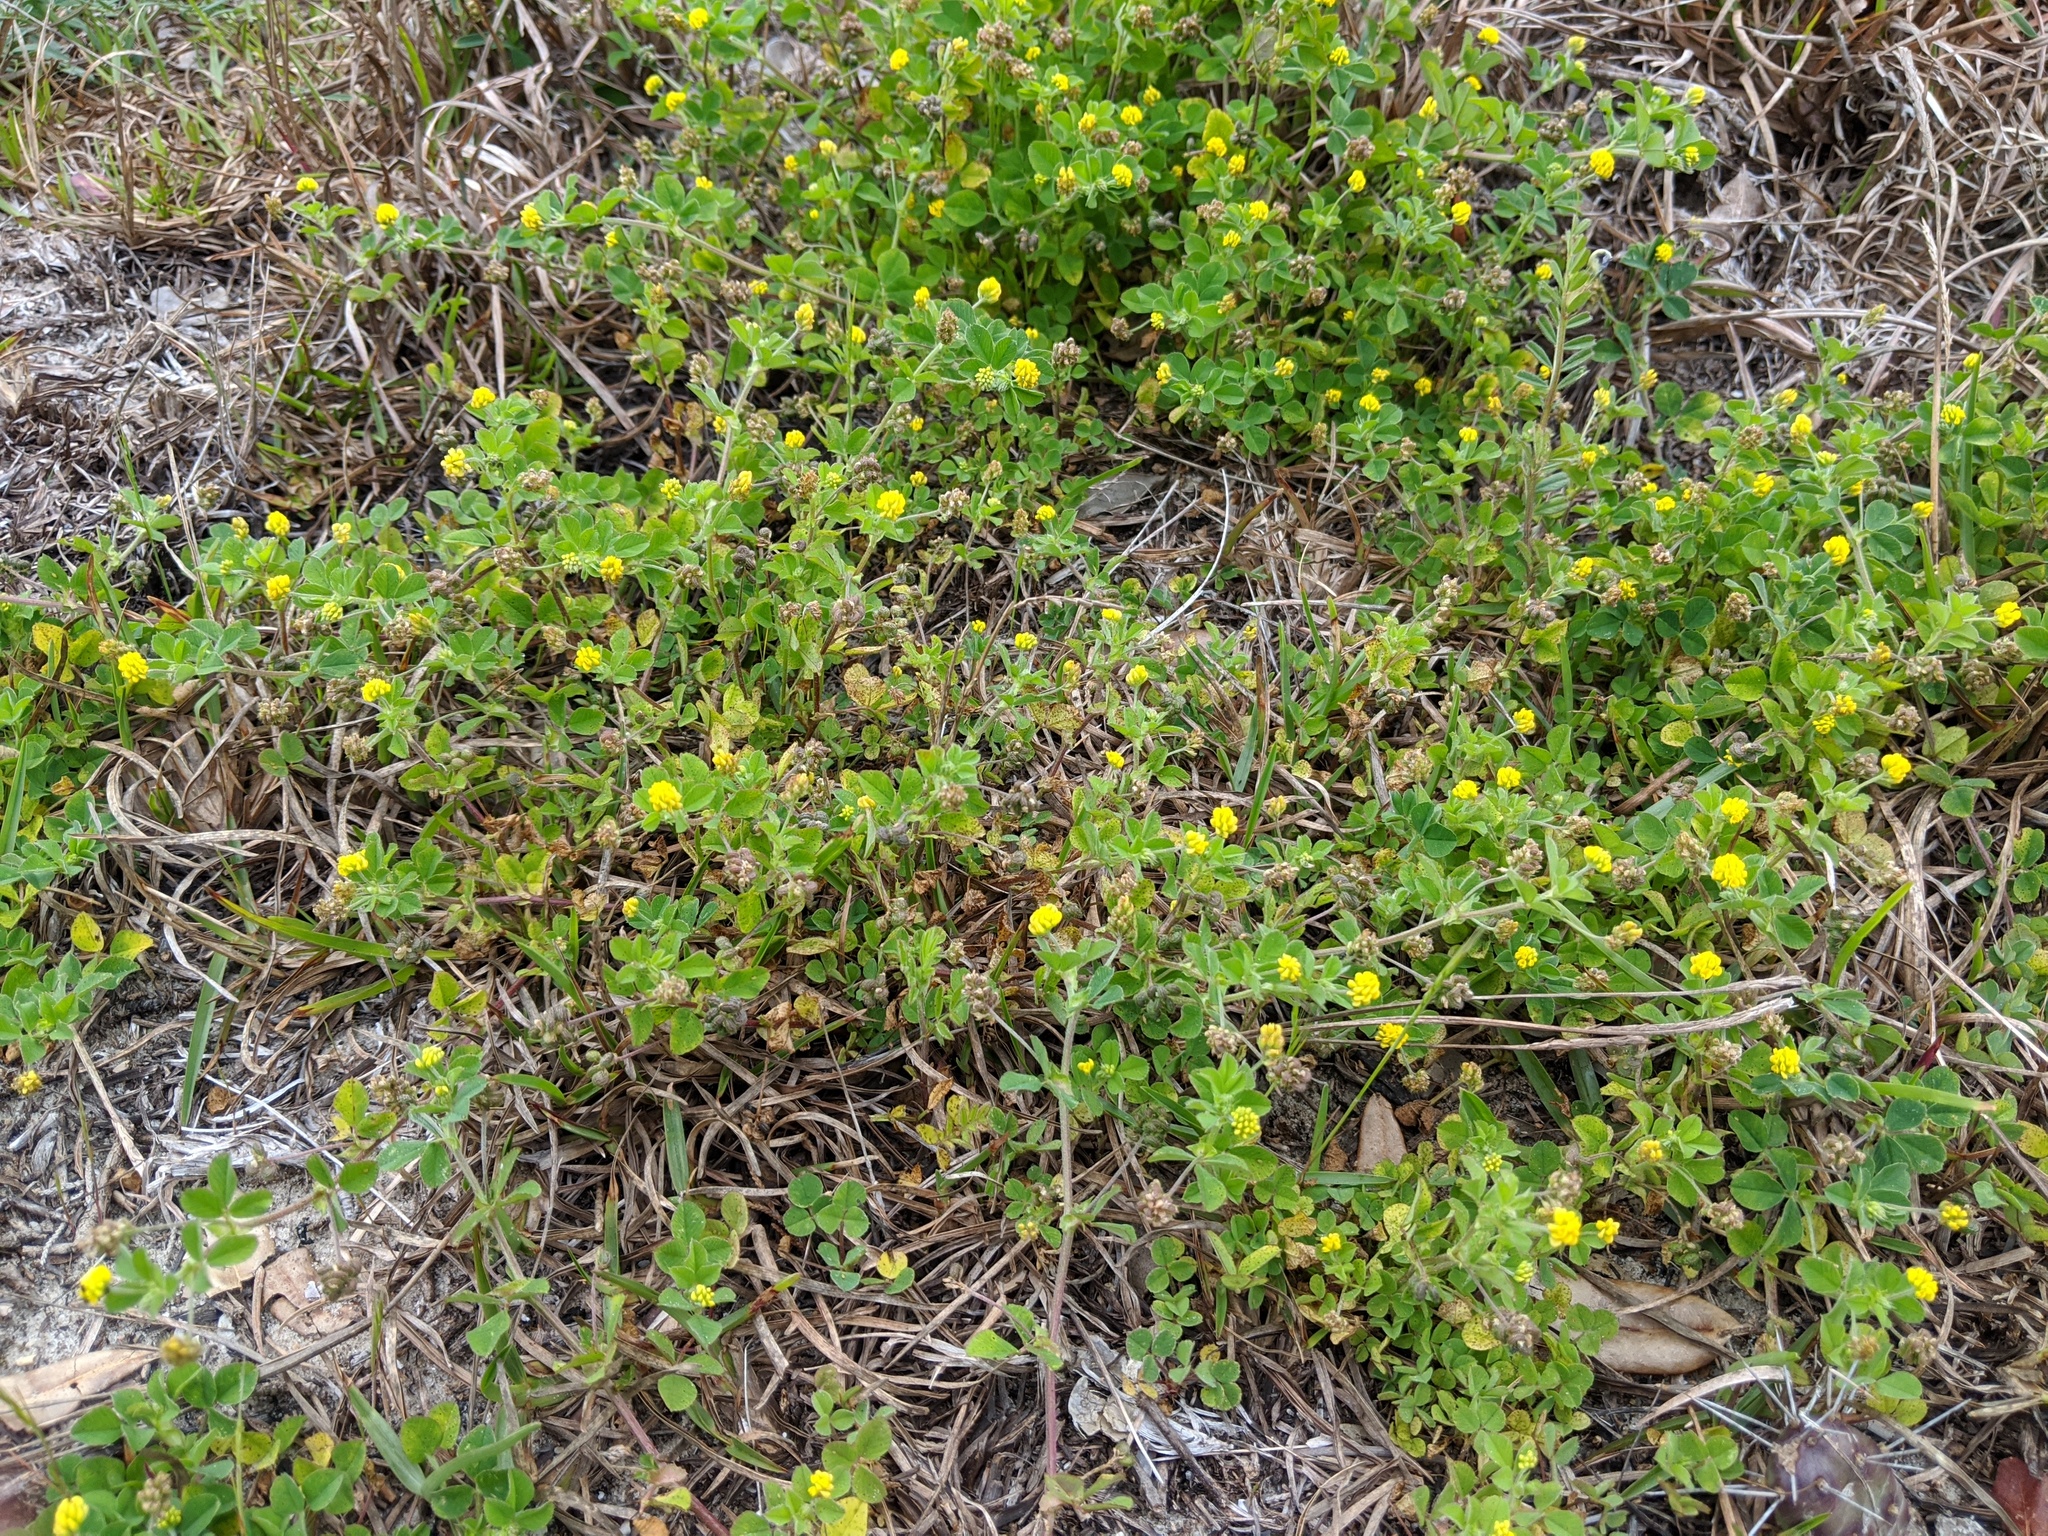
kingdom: Plantae
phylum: Tracheophyta
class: Magnoliopsida
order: Fabales
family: Fabaceae
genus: Medicago
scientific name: Medicago lupulina
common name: Black medick
